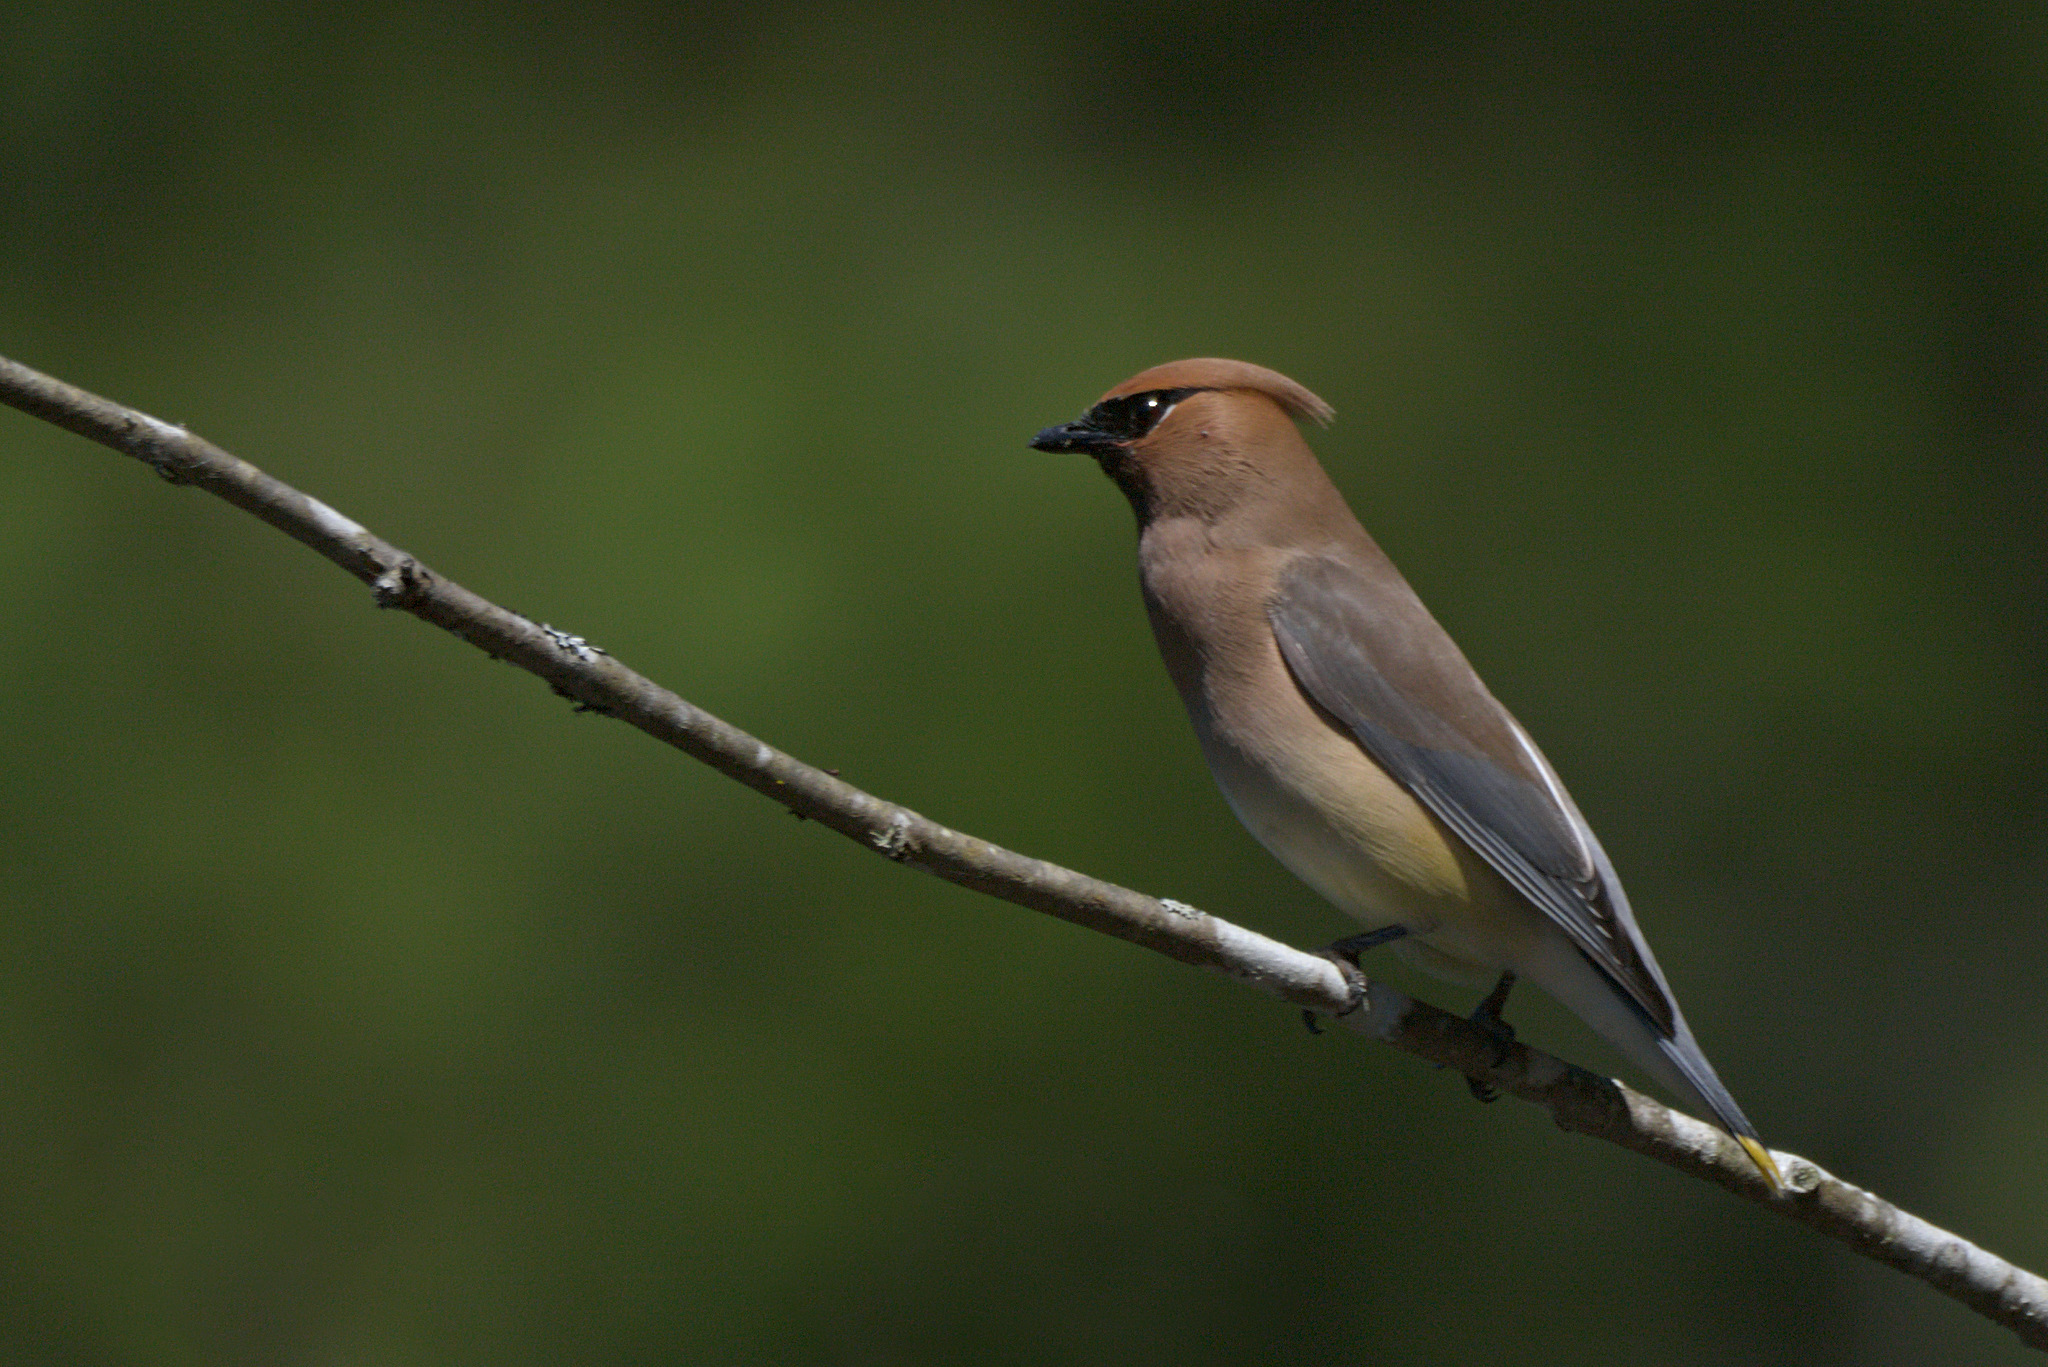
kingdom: Animalia
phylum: Chordata
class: Aves
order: Passeriformes
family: Bombycillidae
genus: Bombycilla
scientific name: Bombycilla cedrorum
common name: Cedar waxwing
